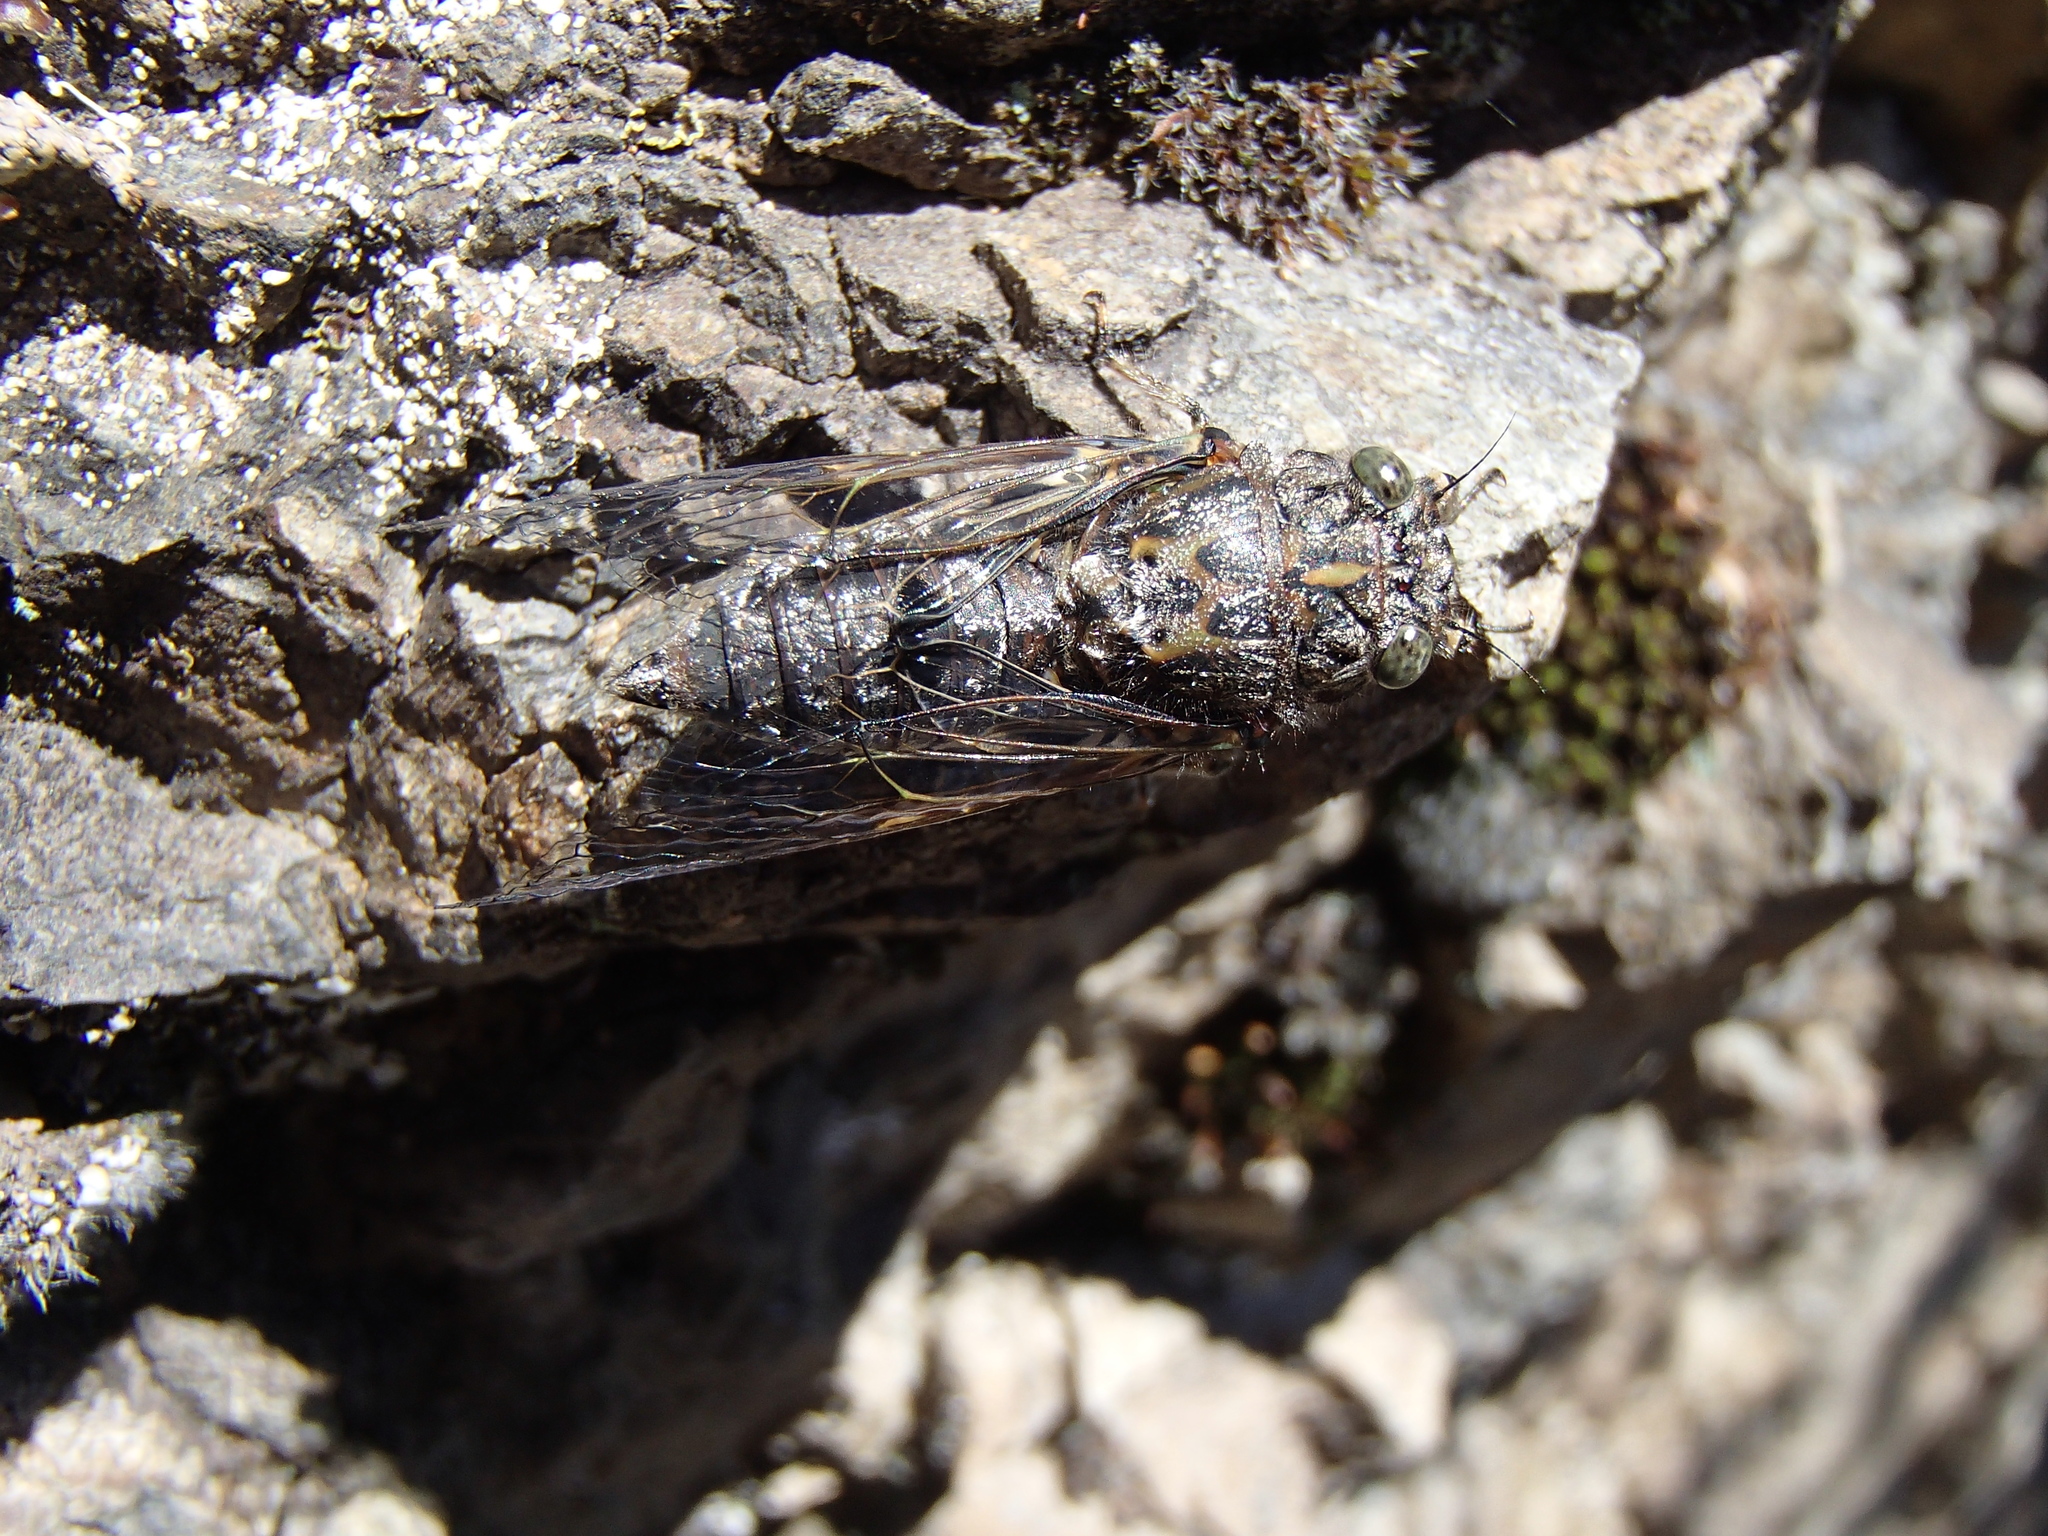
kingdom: Animalia
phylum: Arthropoda
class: Insecta
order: Hemiptera
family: Cicadidae
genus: Amphipsalta
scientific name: Amphipsalta strepitans
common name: Chirping cicada
